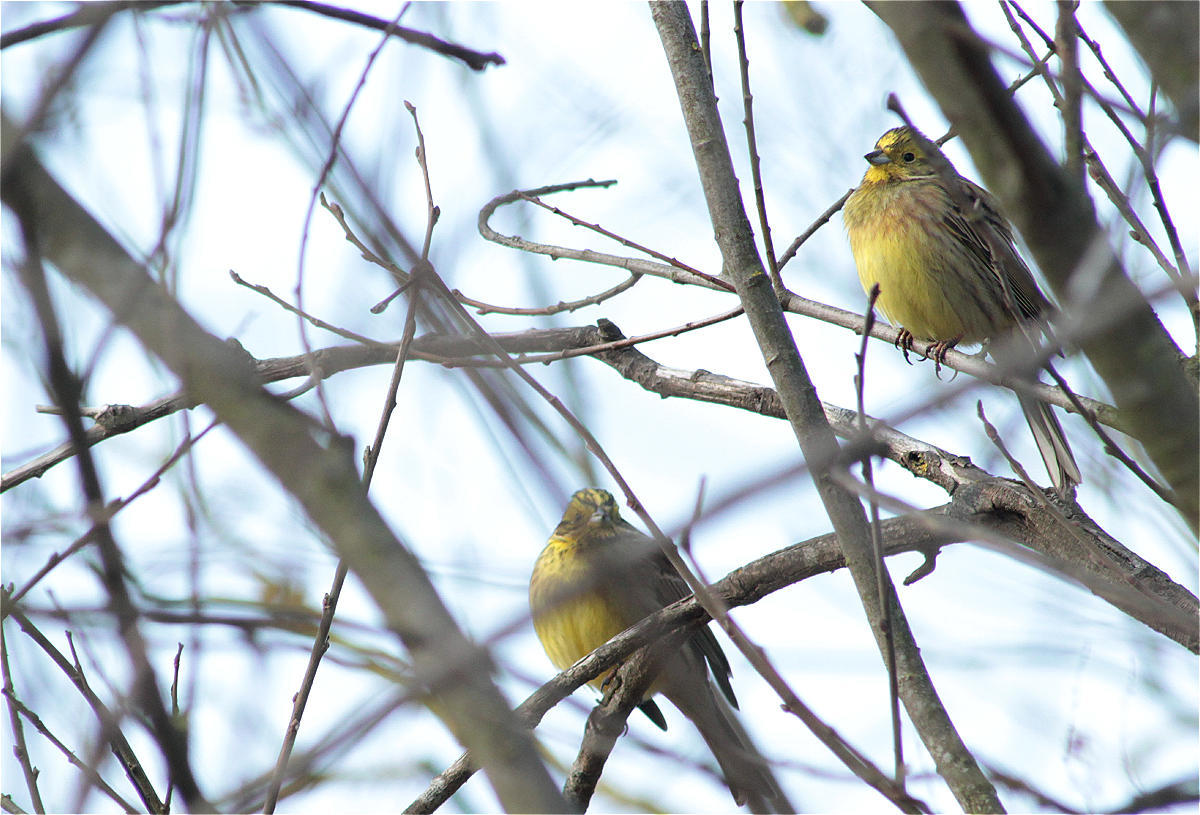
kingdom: Animalia
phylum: Chordata
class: Aves
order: Passeriformes
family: Emberizidae
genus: Emberiza
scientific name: Emberiza citrinella
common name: Yellowhammer
